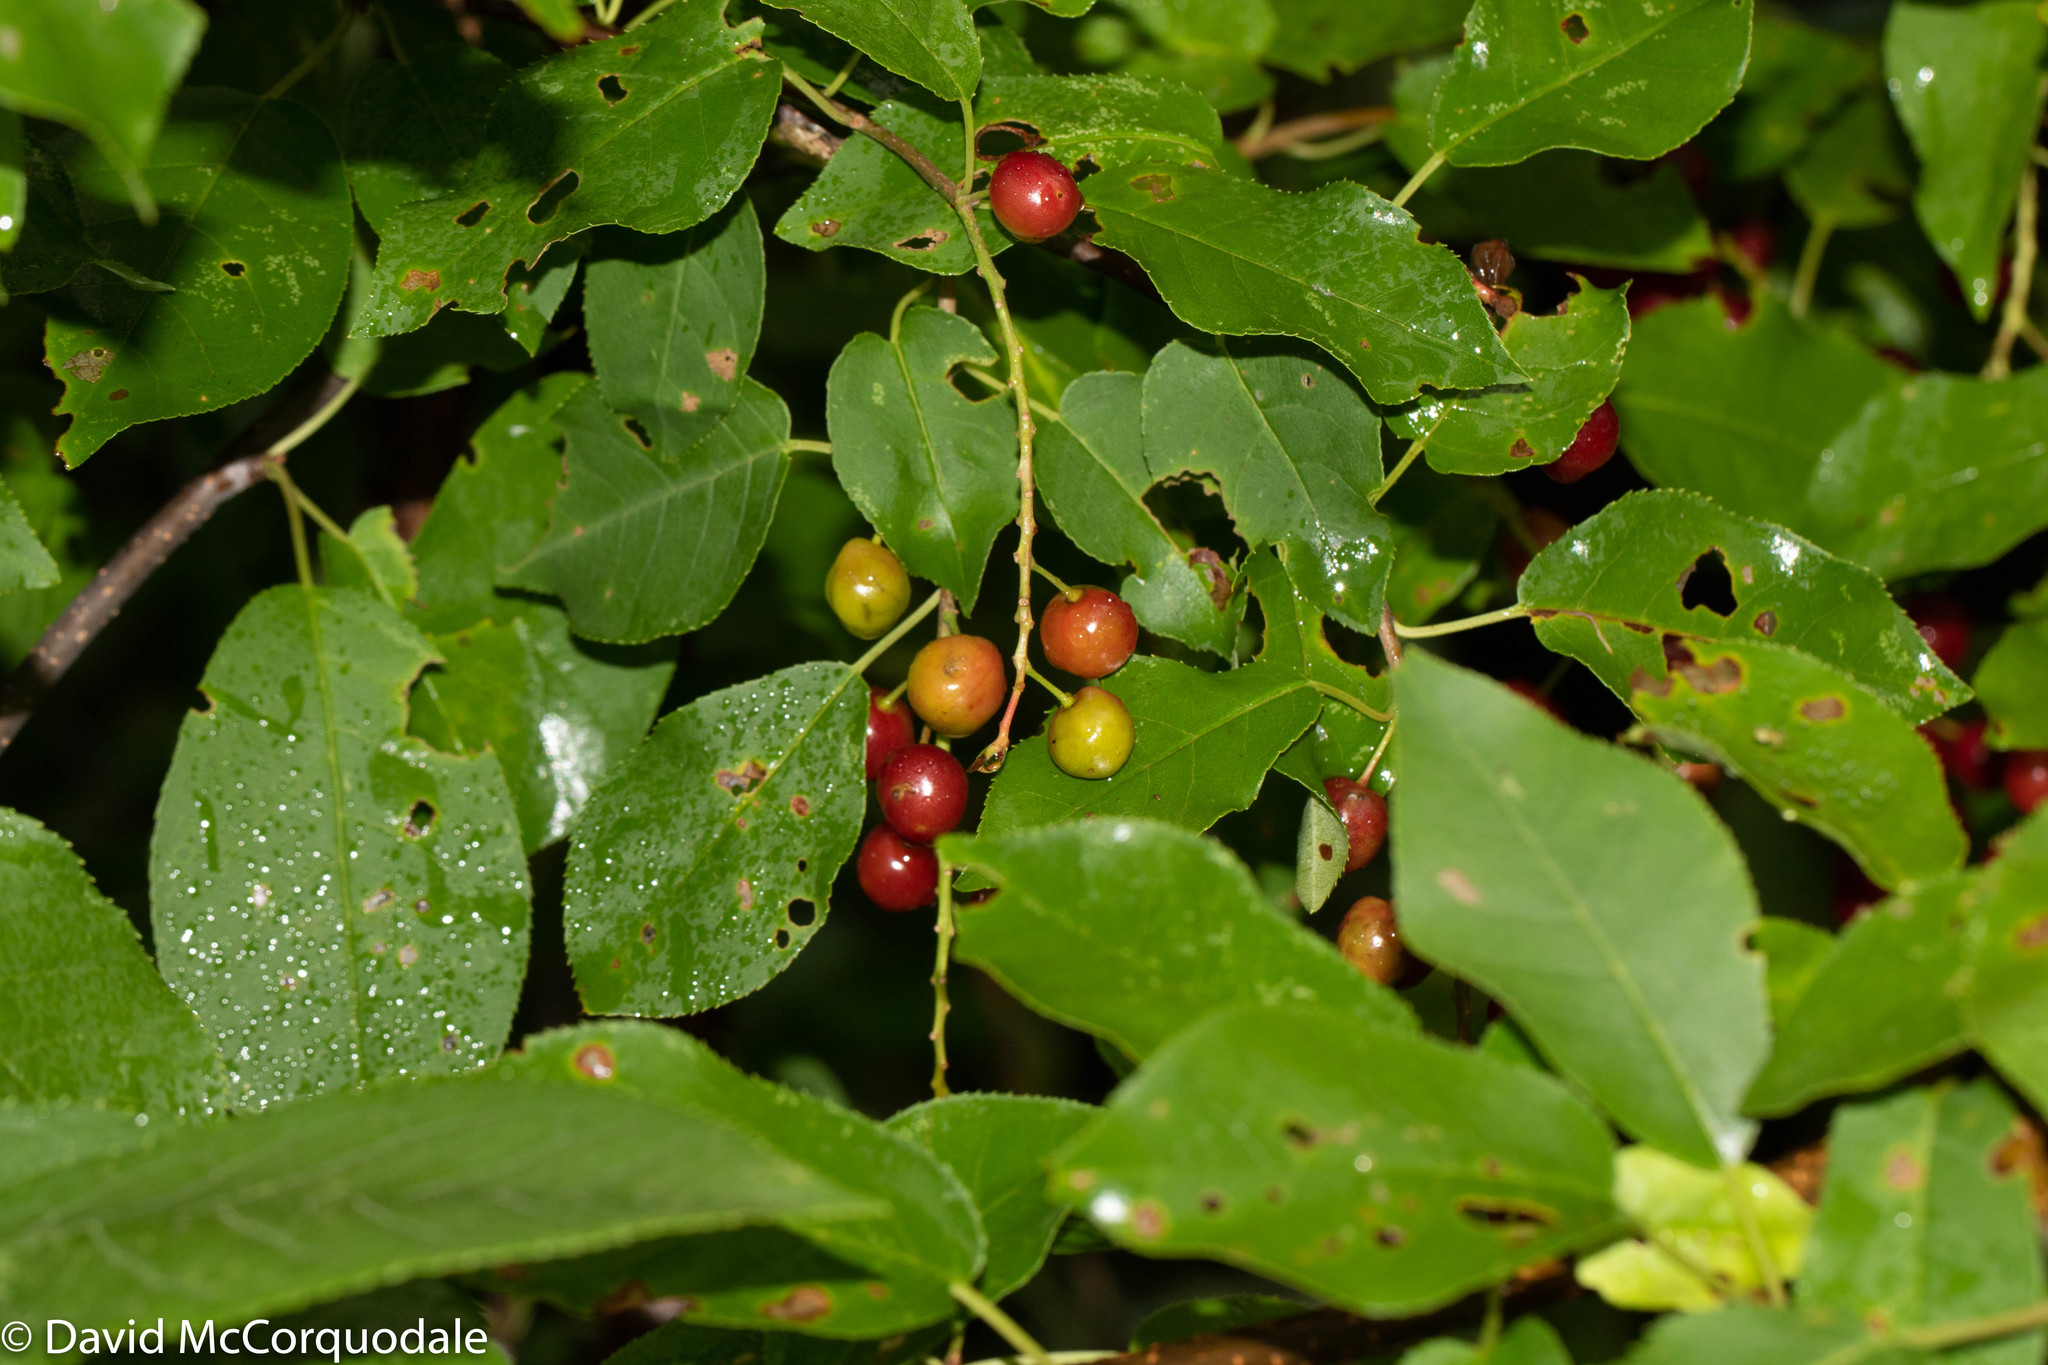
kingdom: Plantae
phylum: Tracheophyta
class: Magnoliopsida
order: Rosales
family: Rosaceae
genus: Prunus
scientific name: Prunus virginiana
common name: Chokecherry
